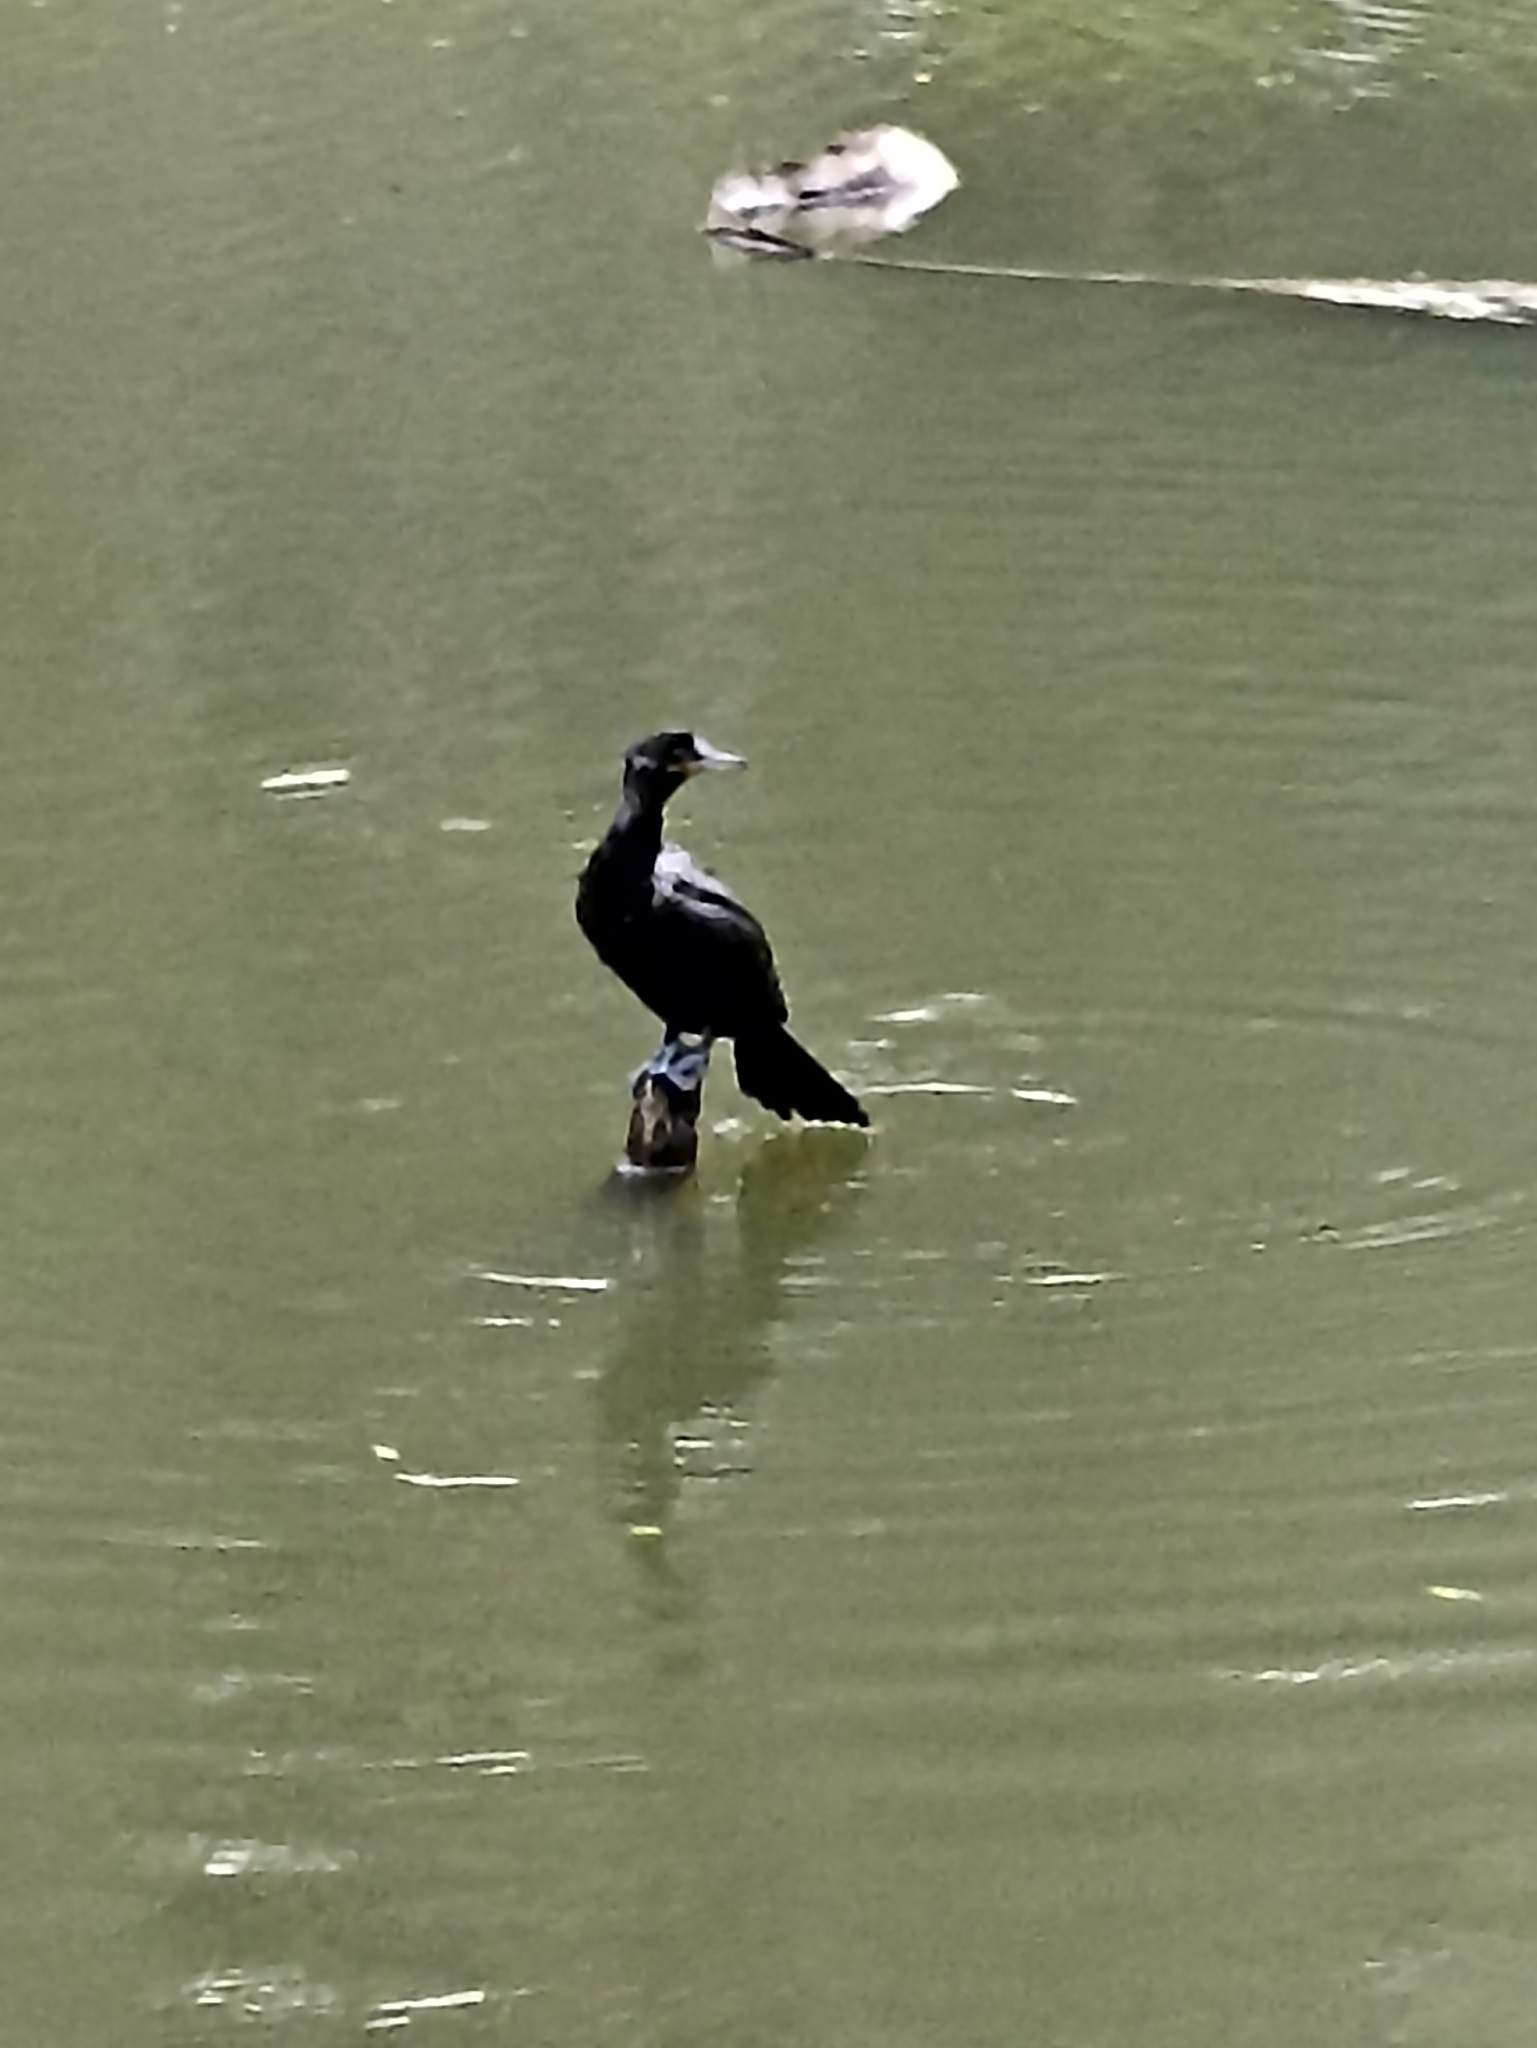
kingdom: Animalia
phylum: Chordata
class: Aves
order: Suliformes
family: Phalacrocoracidae
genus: Phalacrocorax
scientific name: Phalacrocorax brasilianus
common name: Neotropic cormorant
